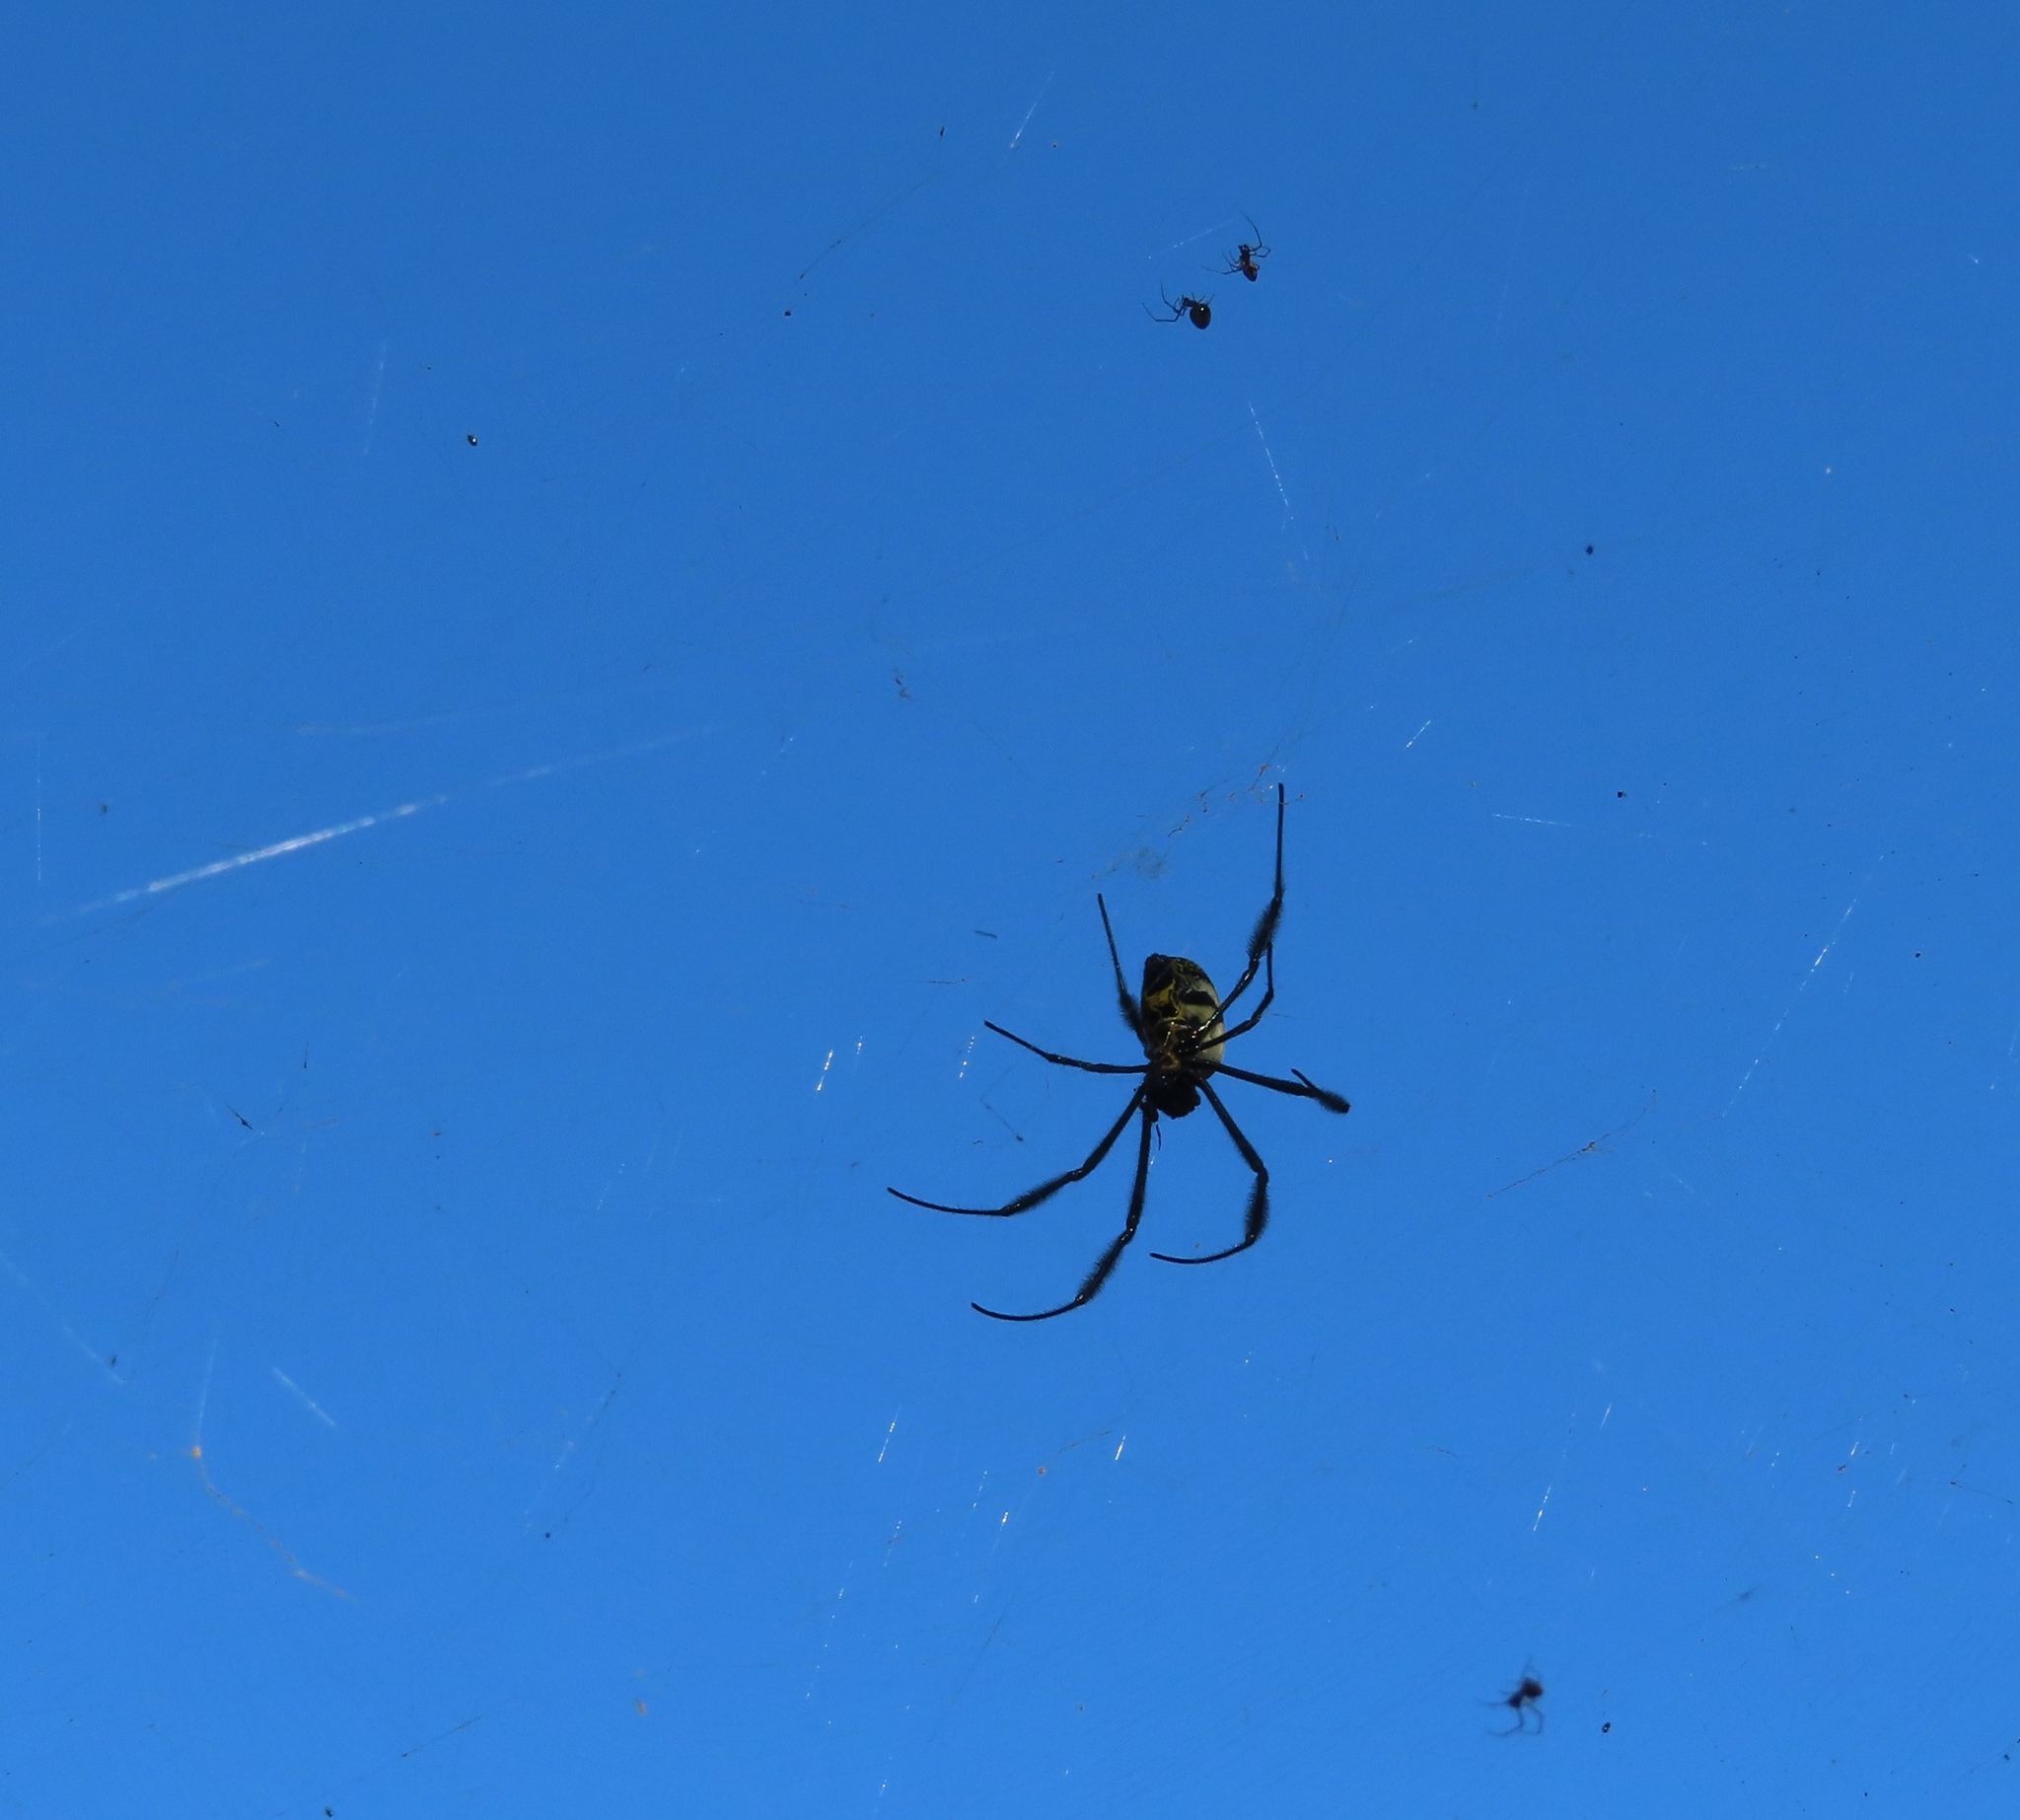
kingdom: Animalia
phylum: Arthropoda
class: Arachnida
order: Araneae
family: Araneidae
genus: Trichonephila
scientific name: Trichonephila fenestrata
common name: Hairy golden orb weaver
